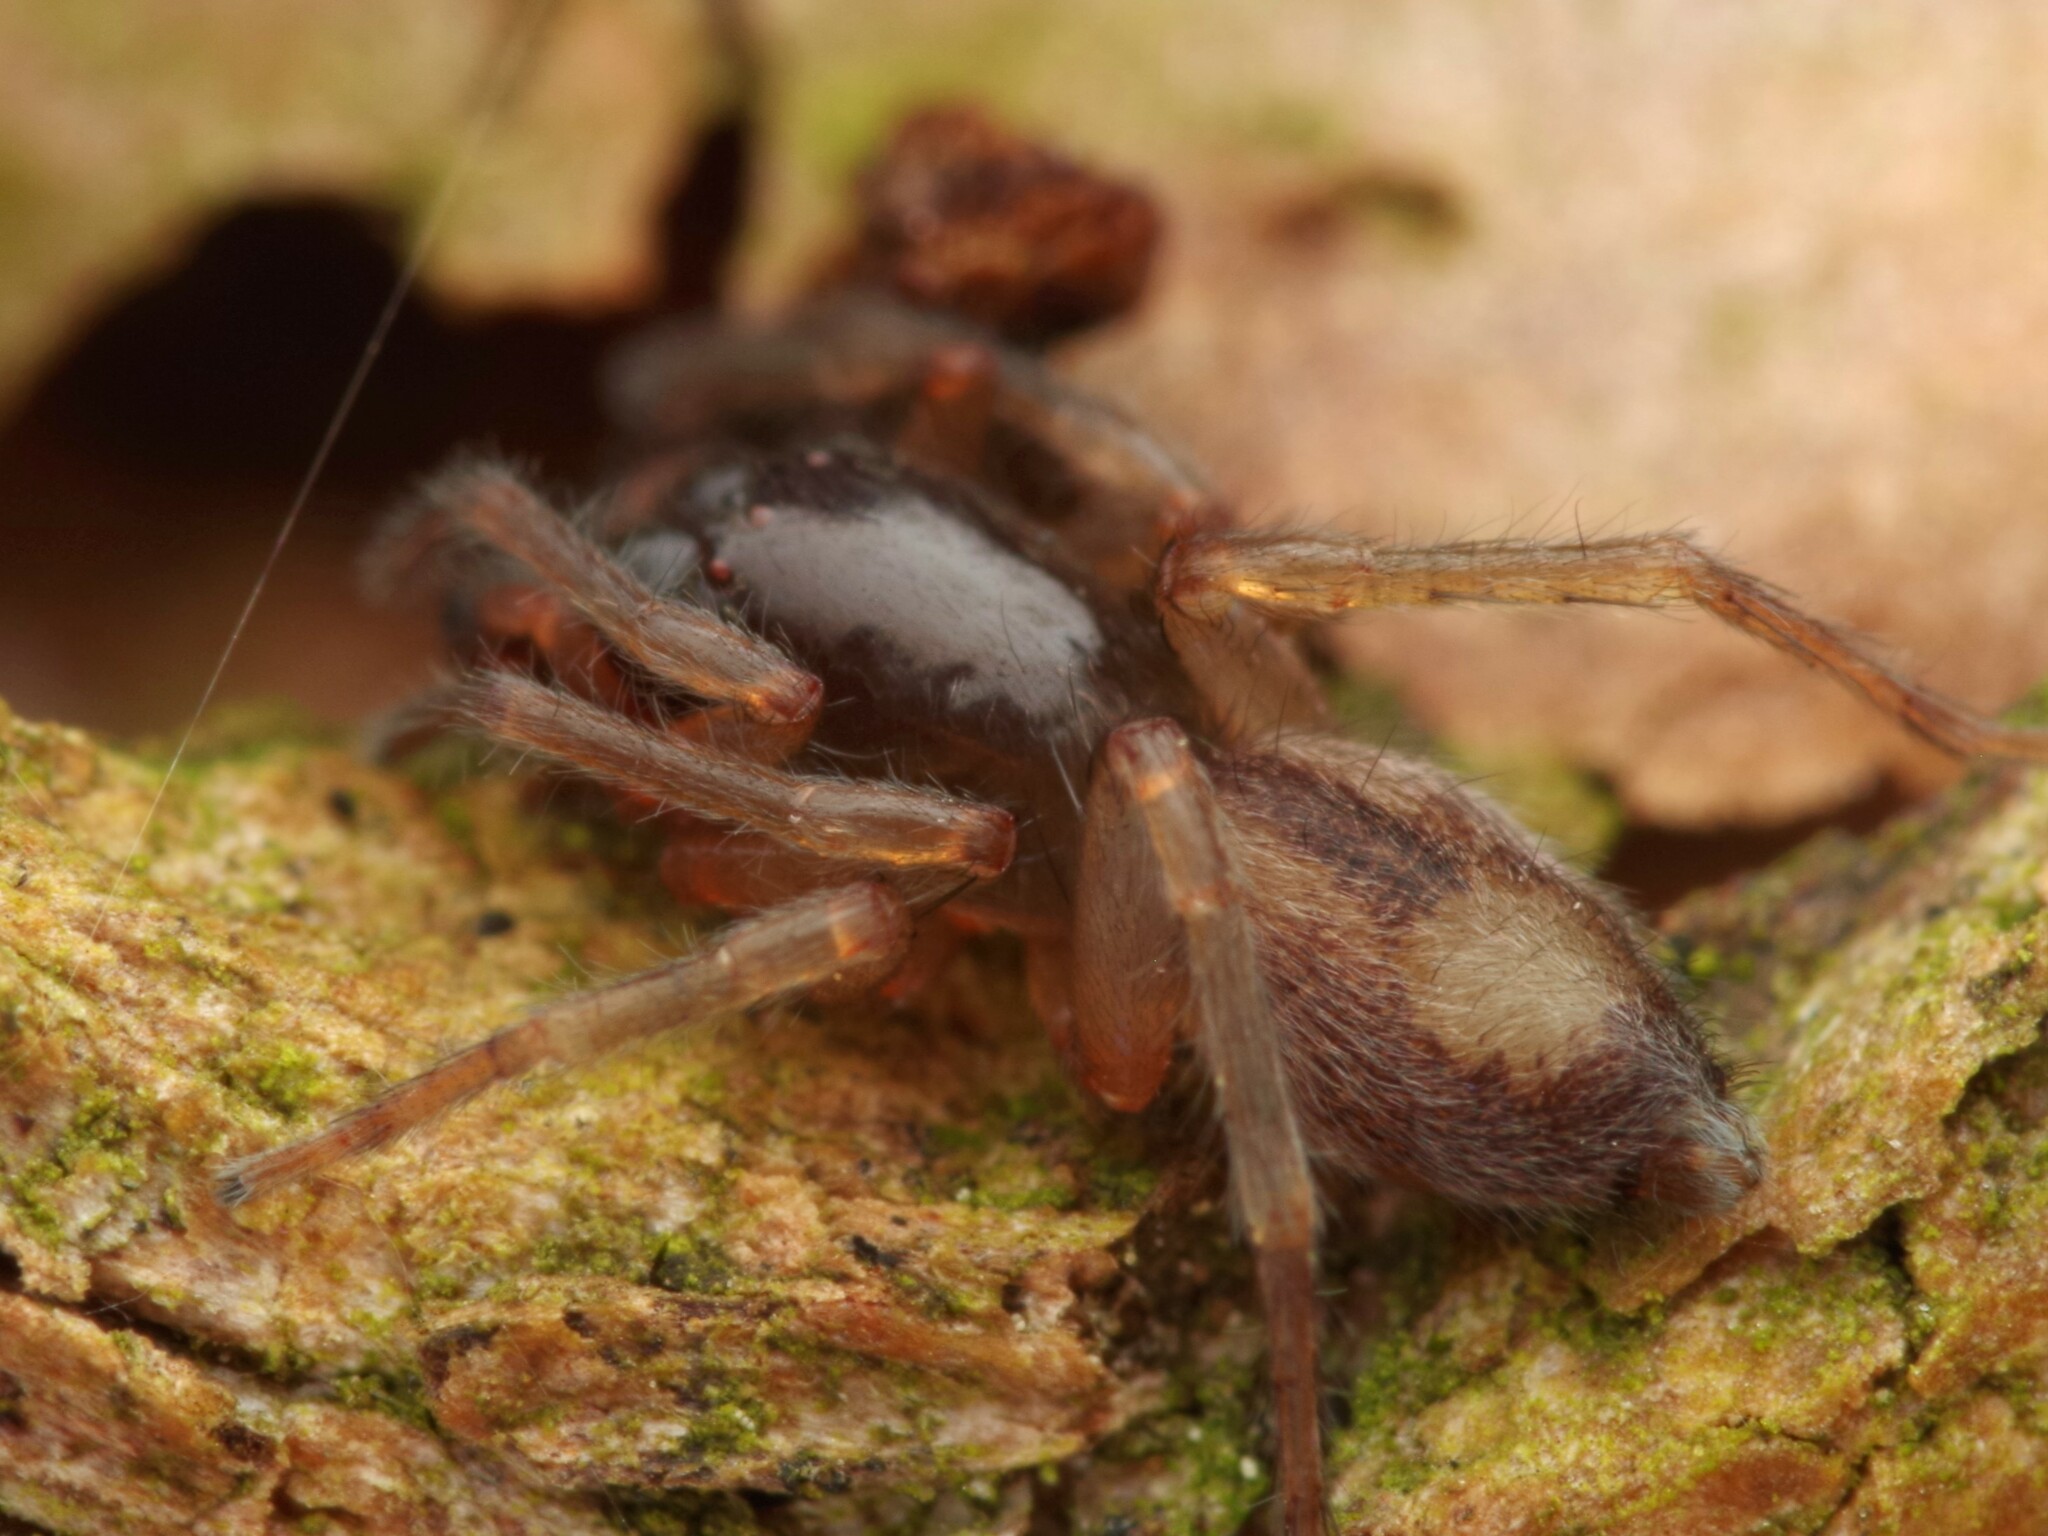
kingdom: Animalia
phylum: Arthropoda
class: Arachnida
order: Araneae
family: Clubionidae
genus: Porrhoclubiona
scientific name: Porrhoclubiona leucaspis
